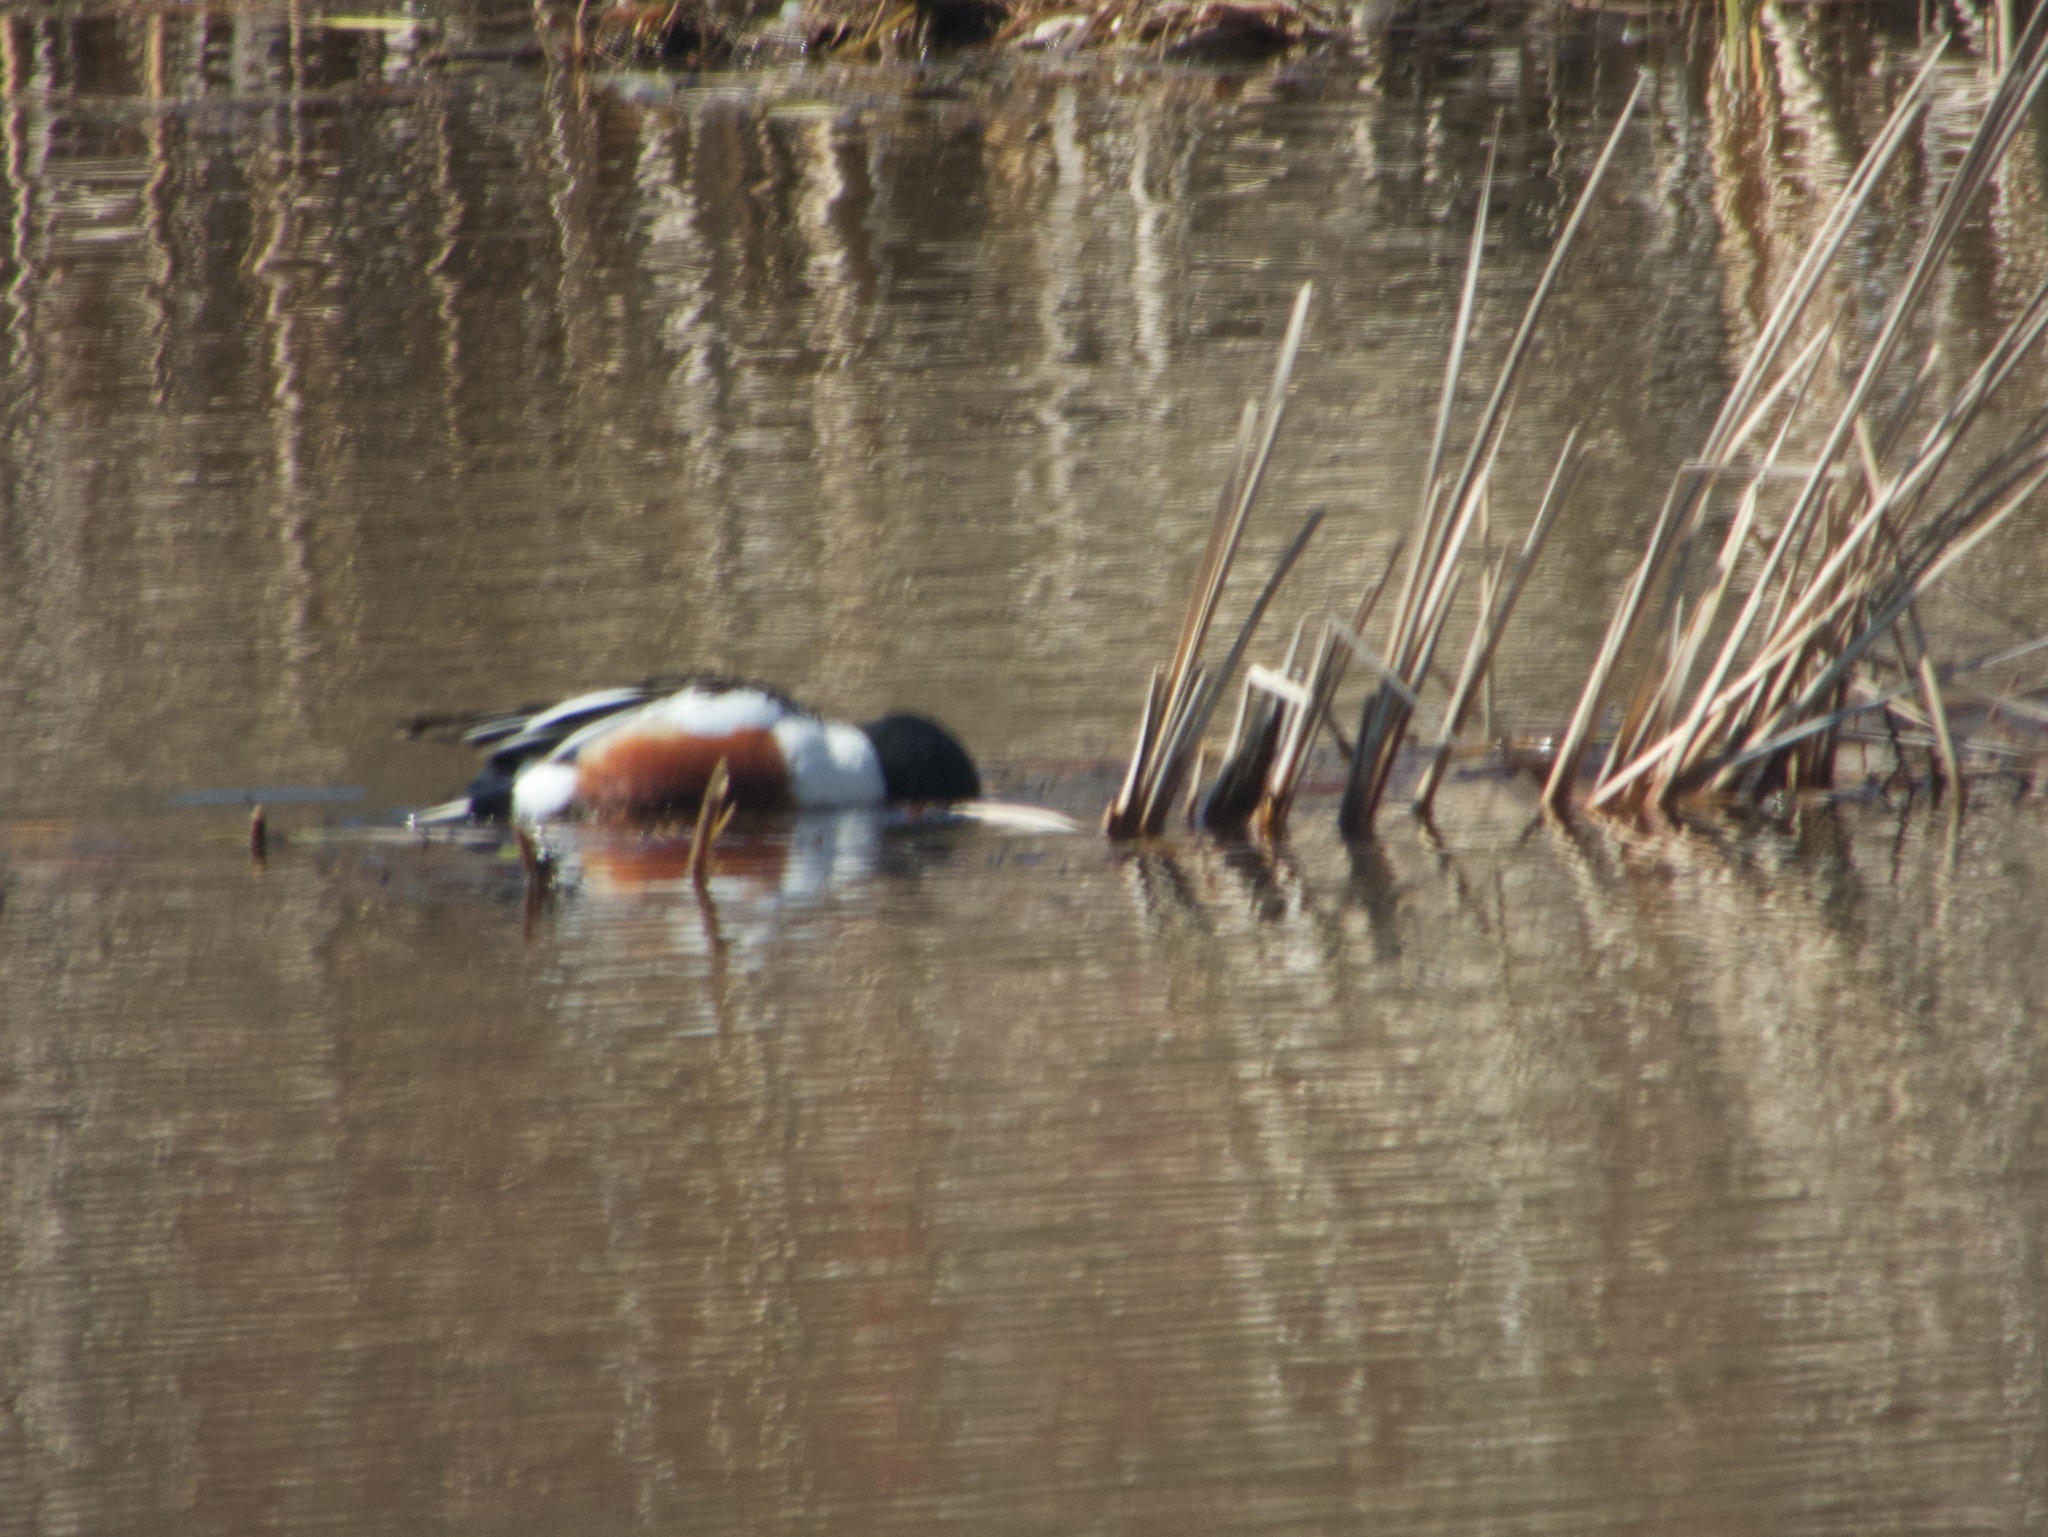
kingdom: Animalia
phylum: Chordata
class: Aves
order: Anseriformes
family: Anatidae
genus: Spatula
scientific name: Spatula clypeata
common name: Northern shoveler
